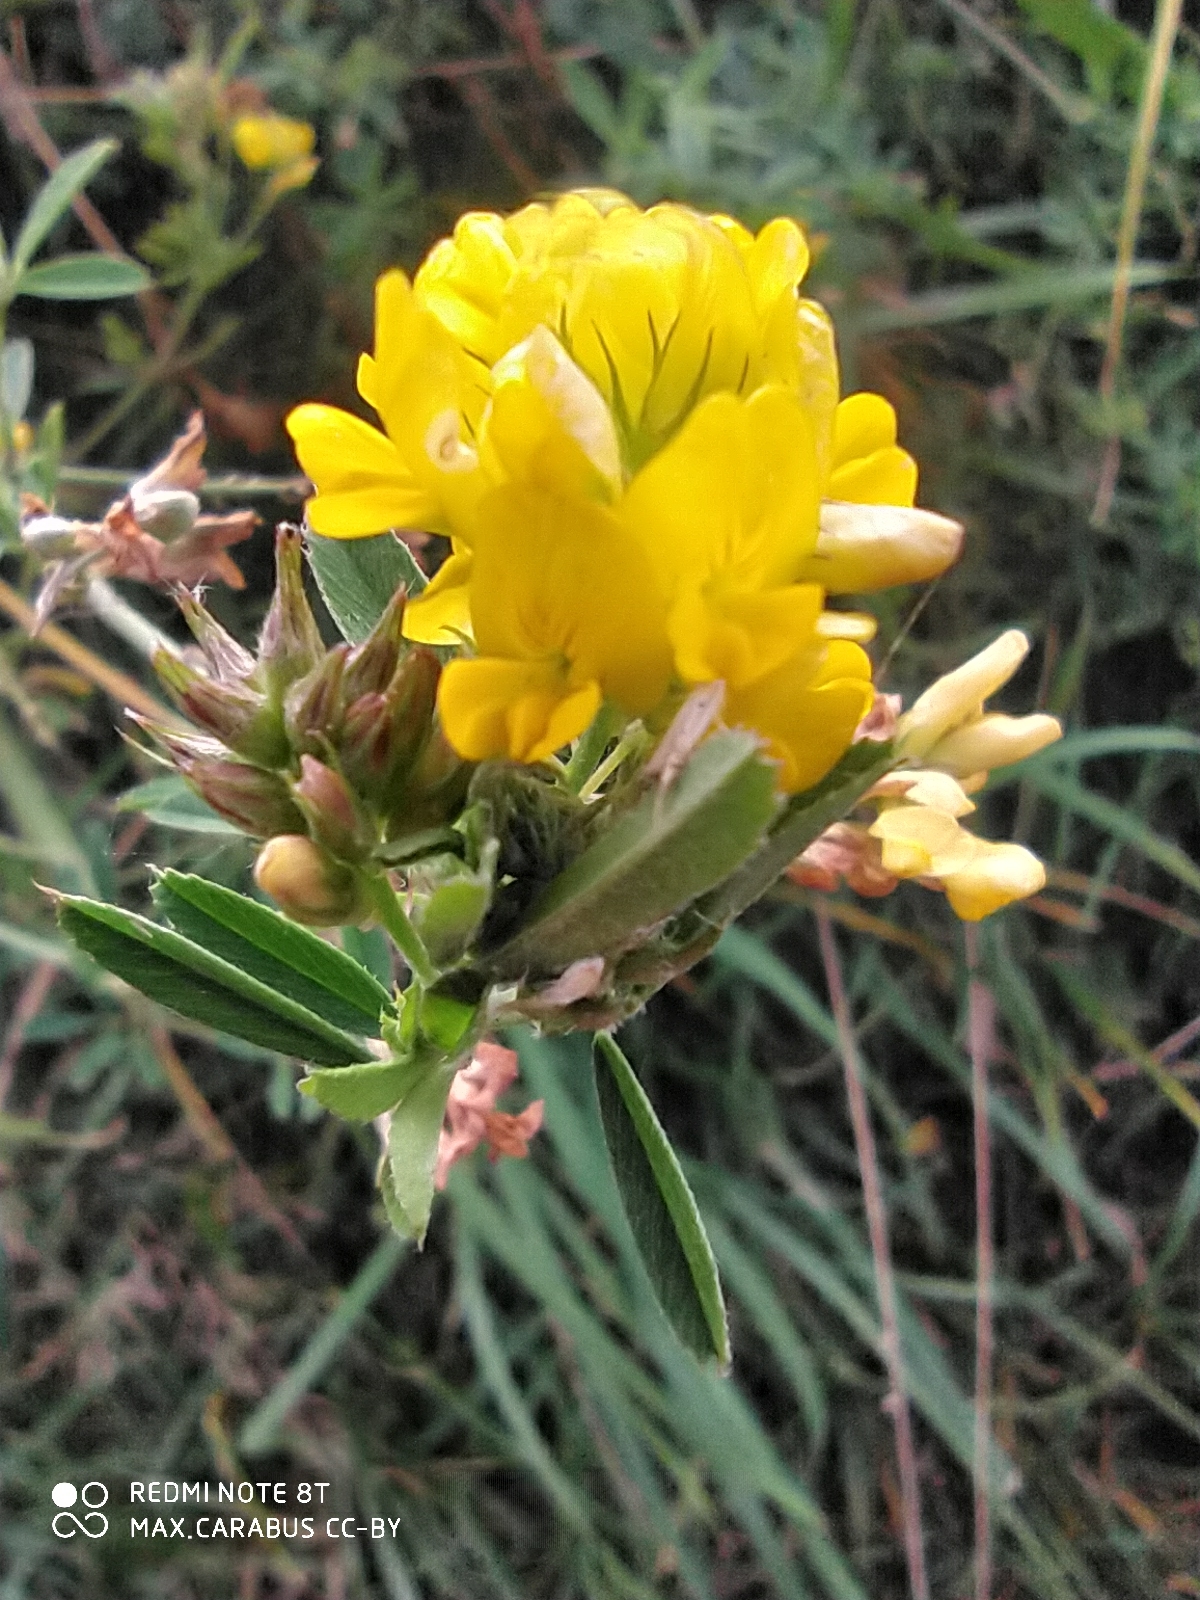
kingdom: Plantae
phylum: Tracheophyta
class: Magnoliopsida
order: Fabales
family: Fabaceae
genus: Medicago
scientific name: Medicago falcata
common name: Sickle medick
